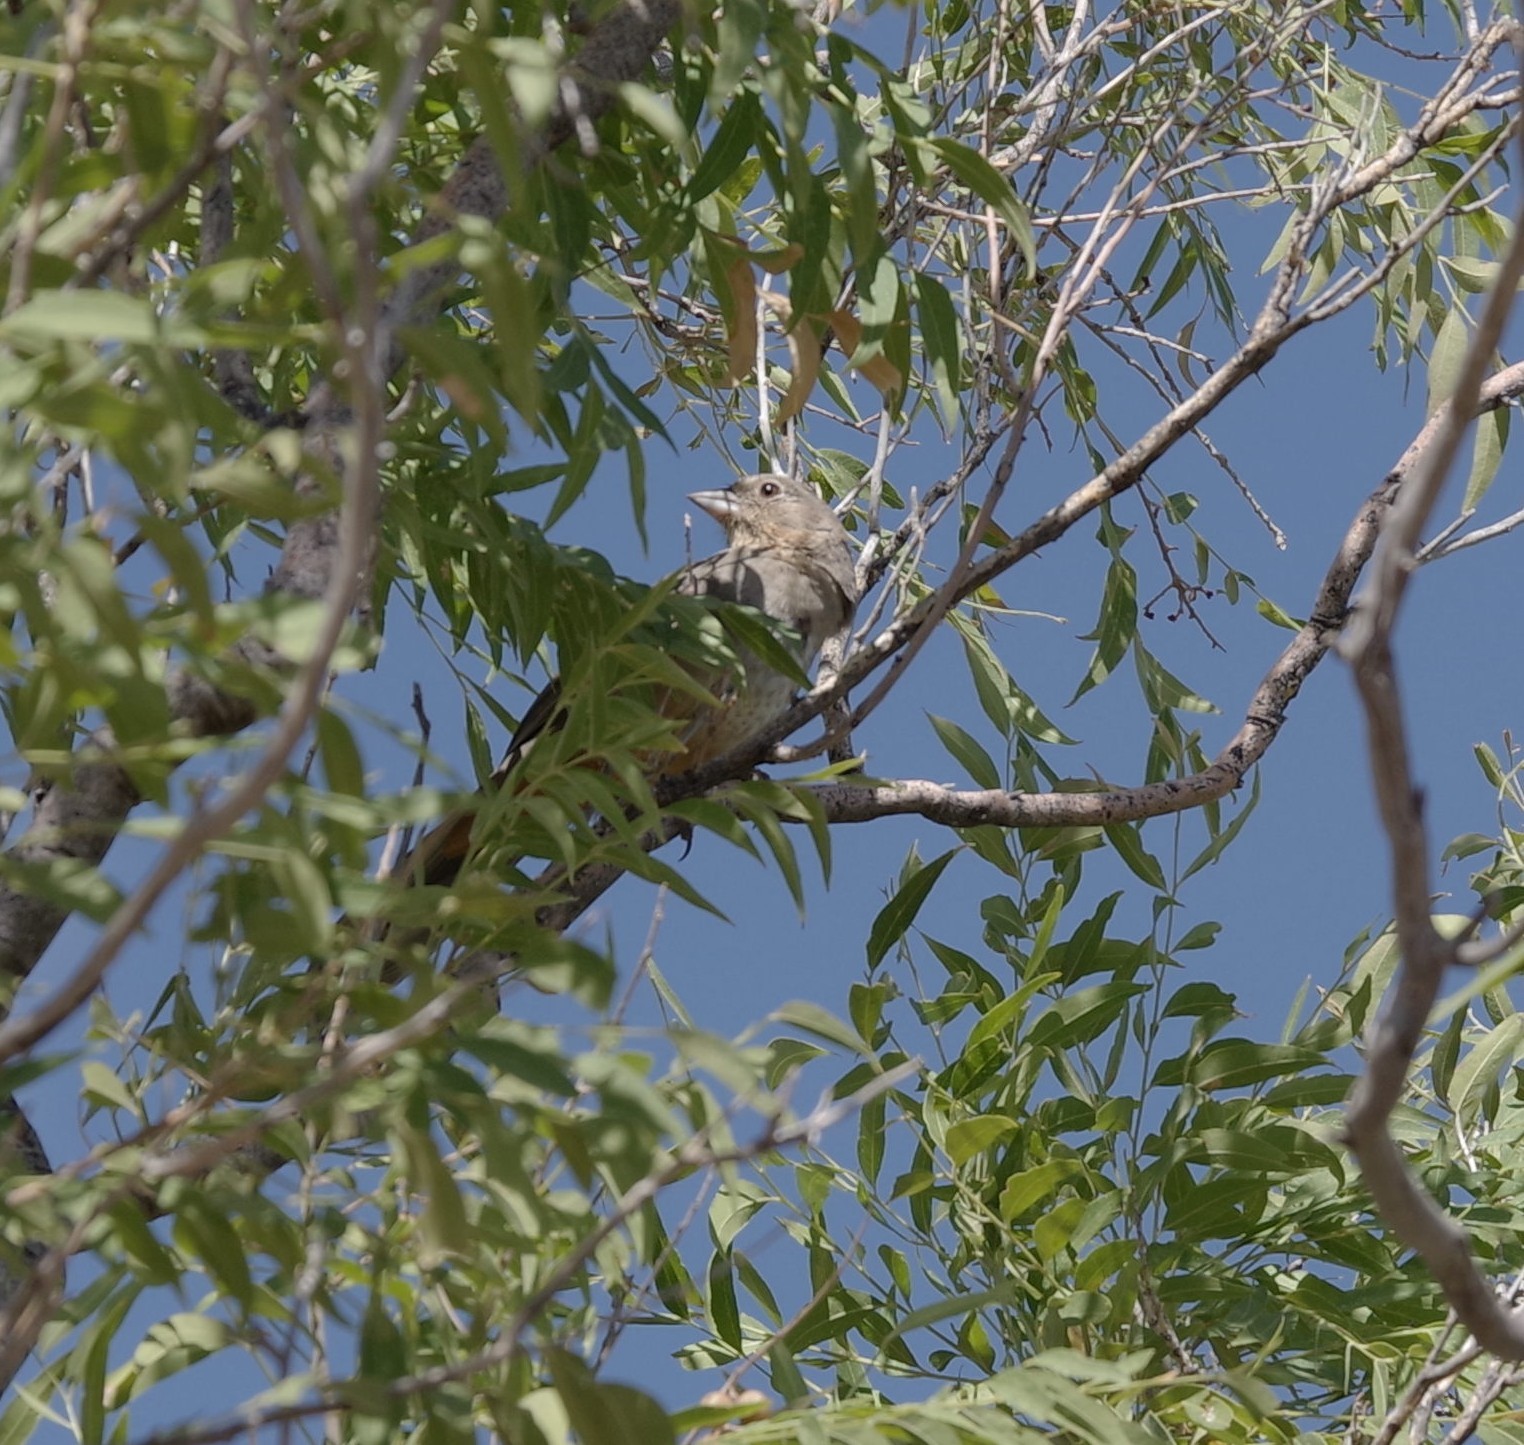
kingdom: Animalia
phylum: Chordata
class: Aves
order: Passeriformes
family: Passerellidae
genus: Melozone
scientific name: Melozone fusca
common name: Canyon towhee
